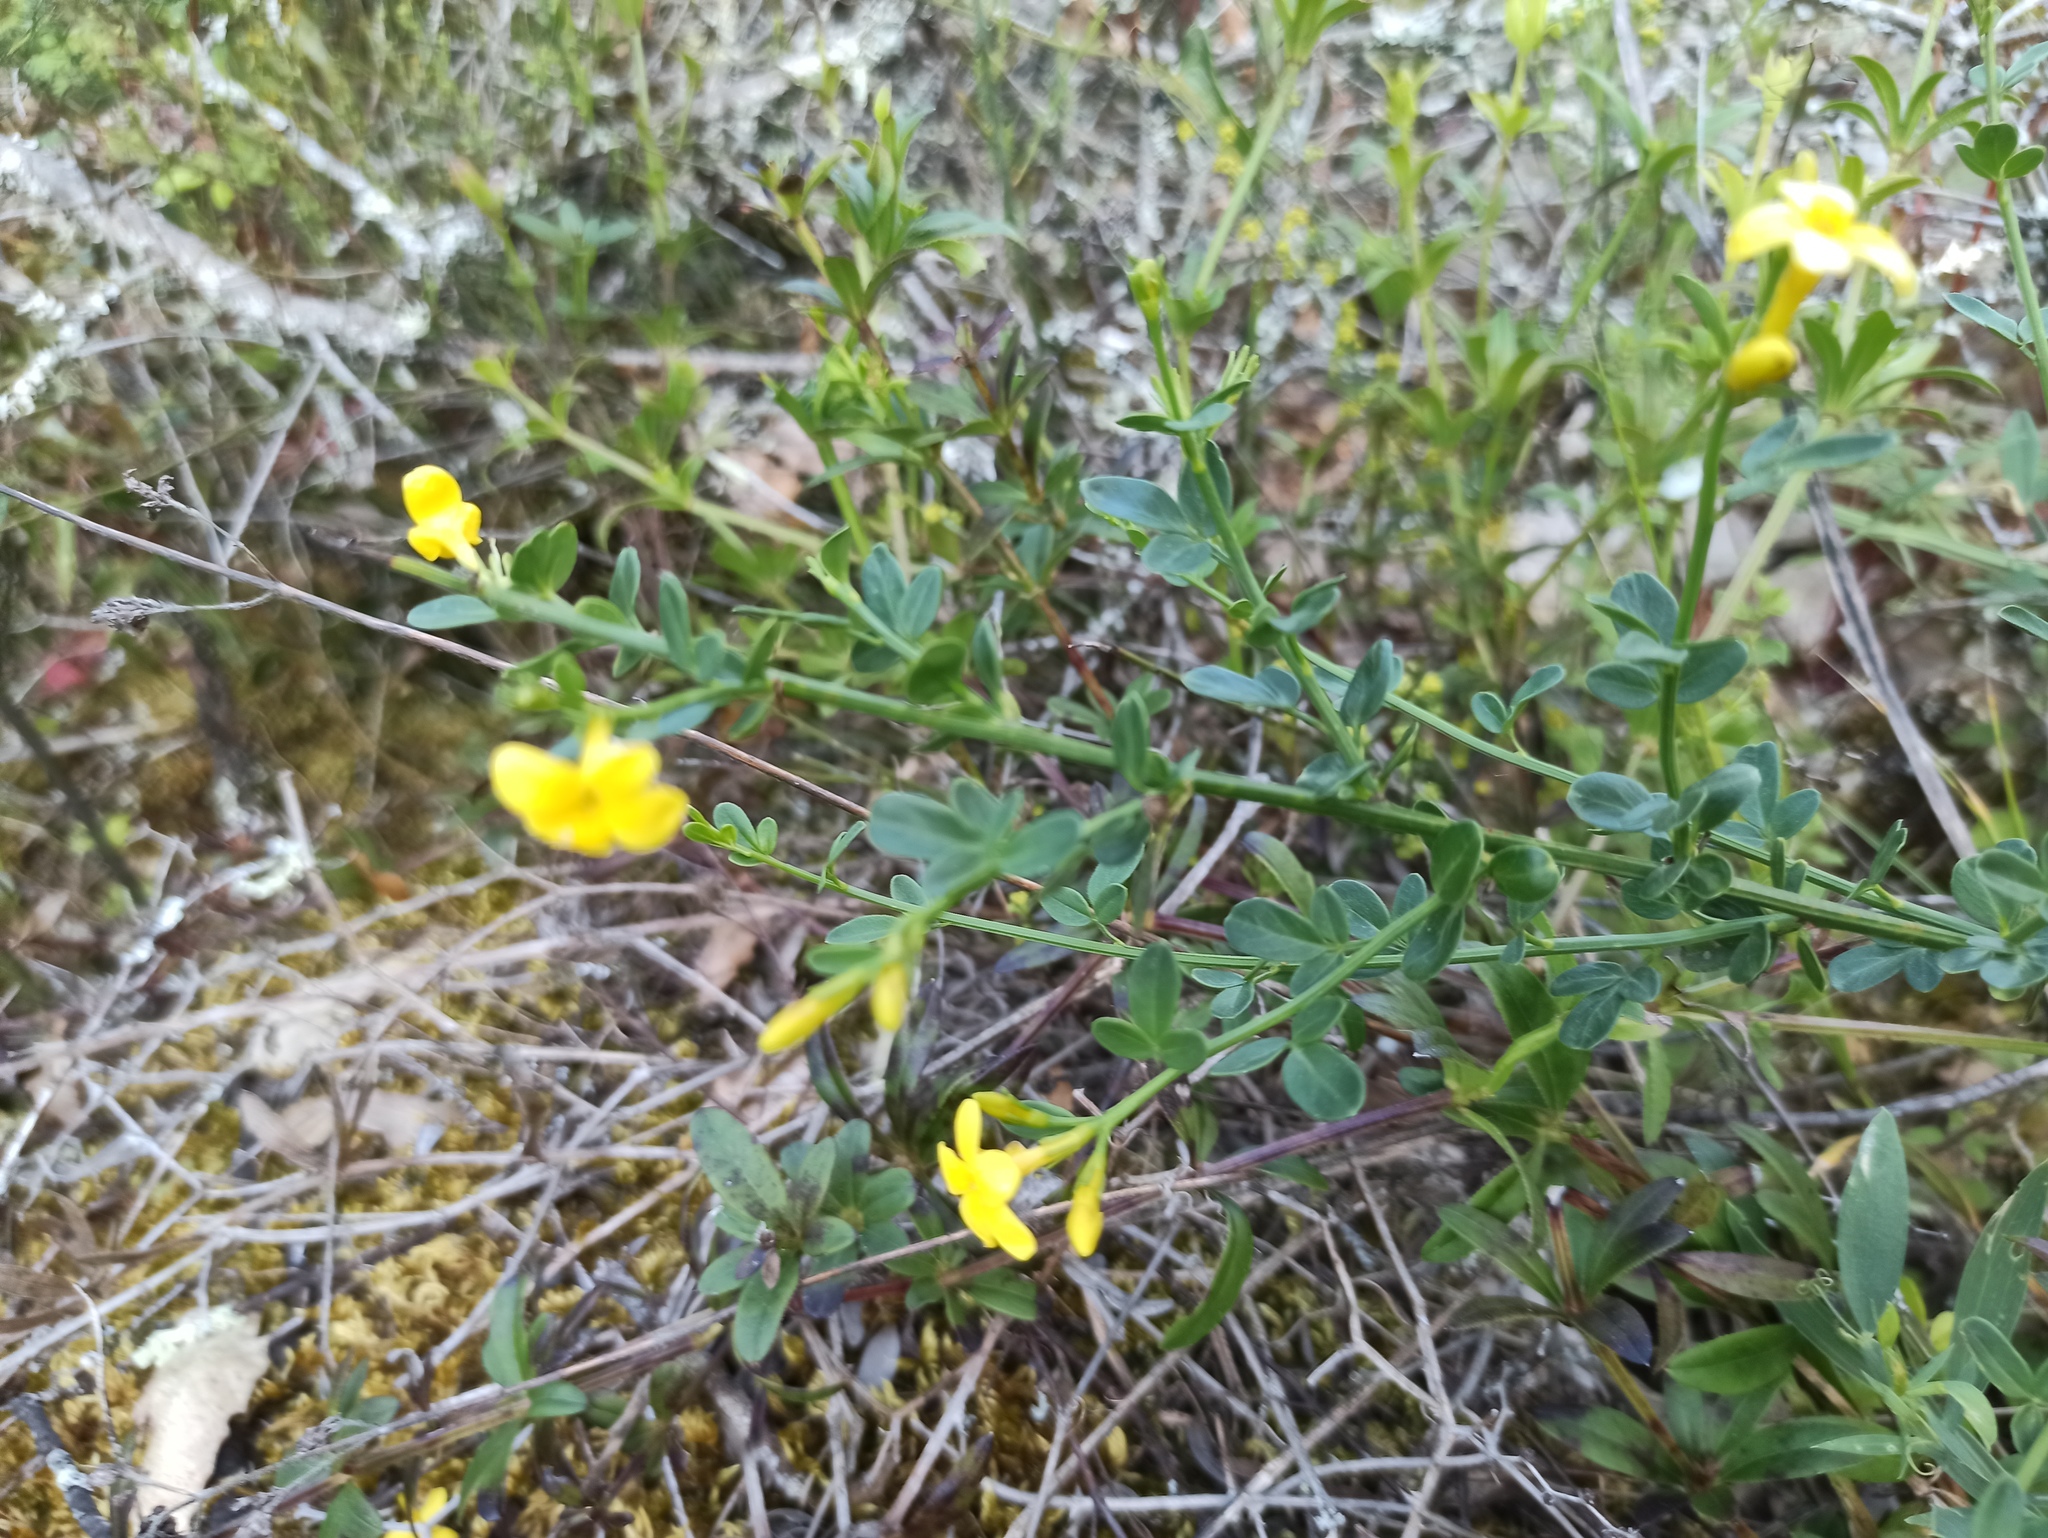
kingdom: Plantae
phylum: Tracheophyta
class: Magnoliopsida
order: Lamiales
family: Oleaceae
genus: Chrysojasminum
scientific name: Chrysojasminum fruticans
